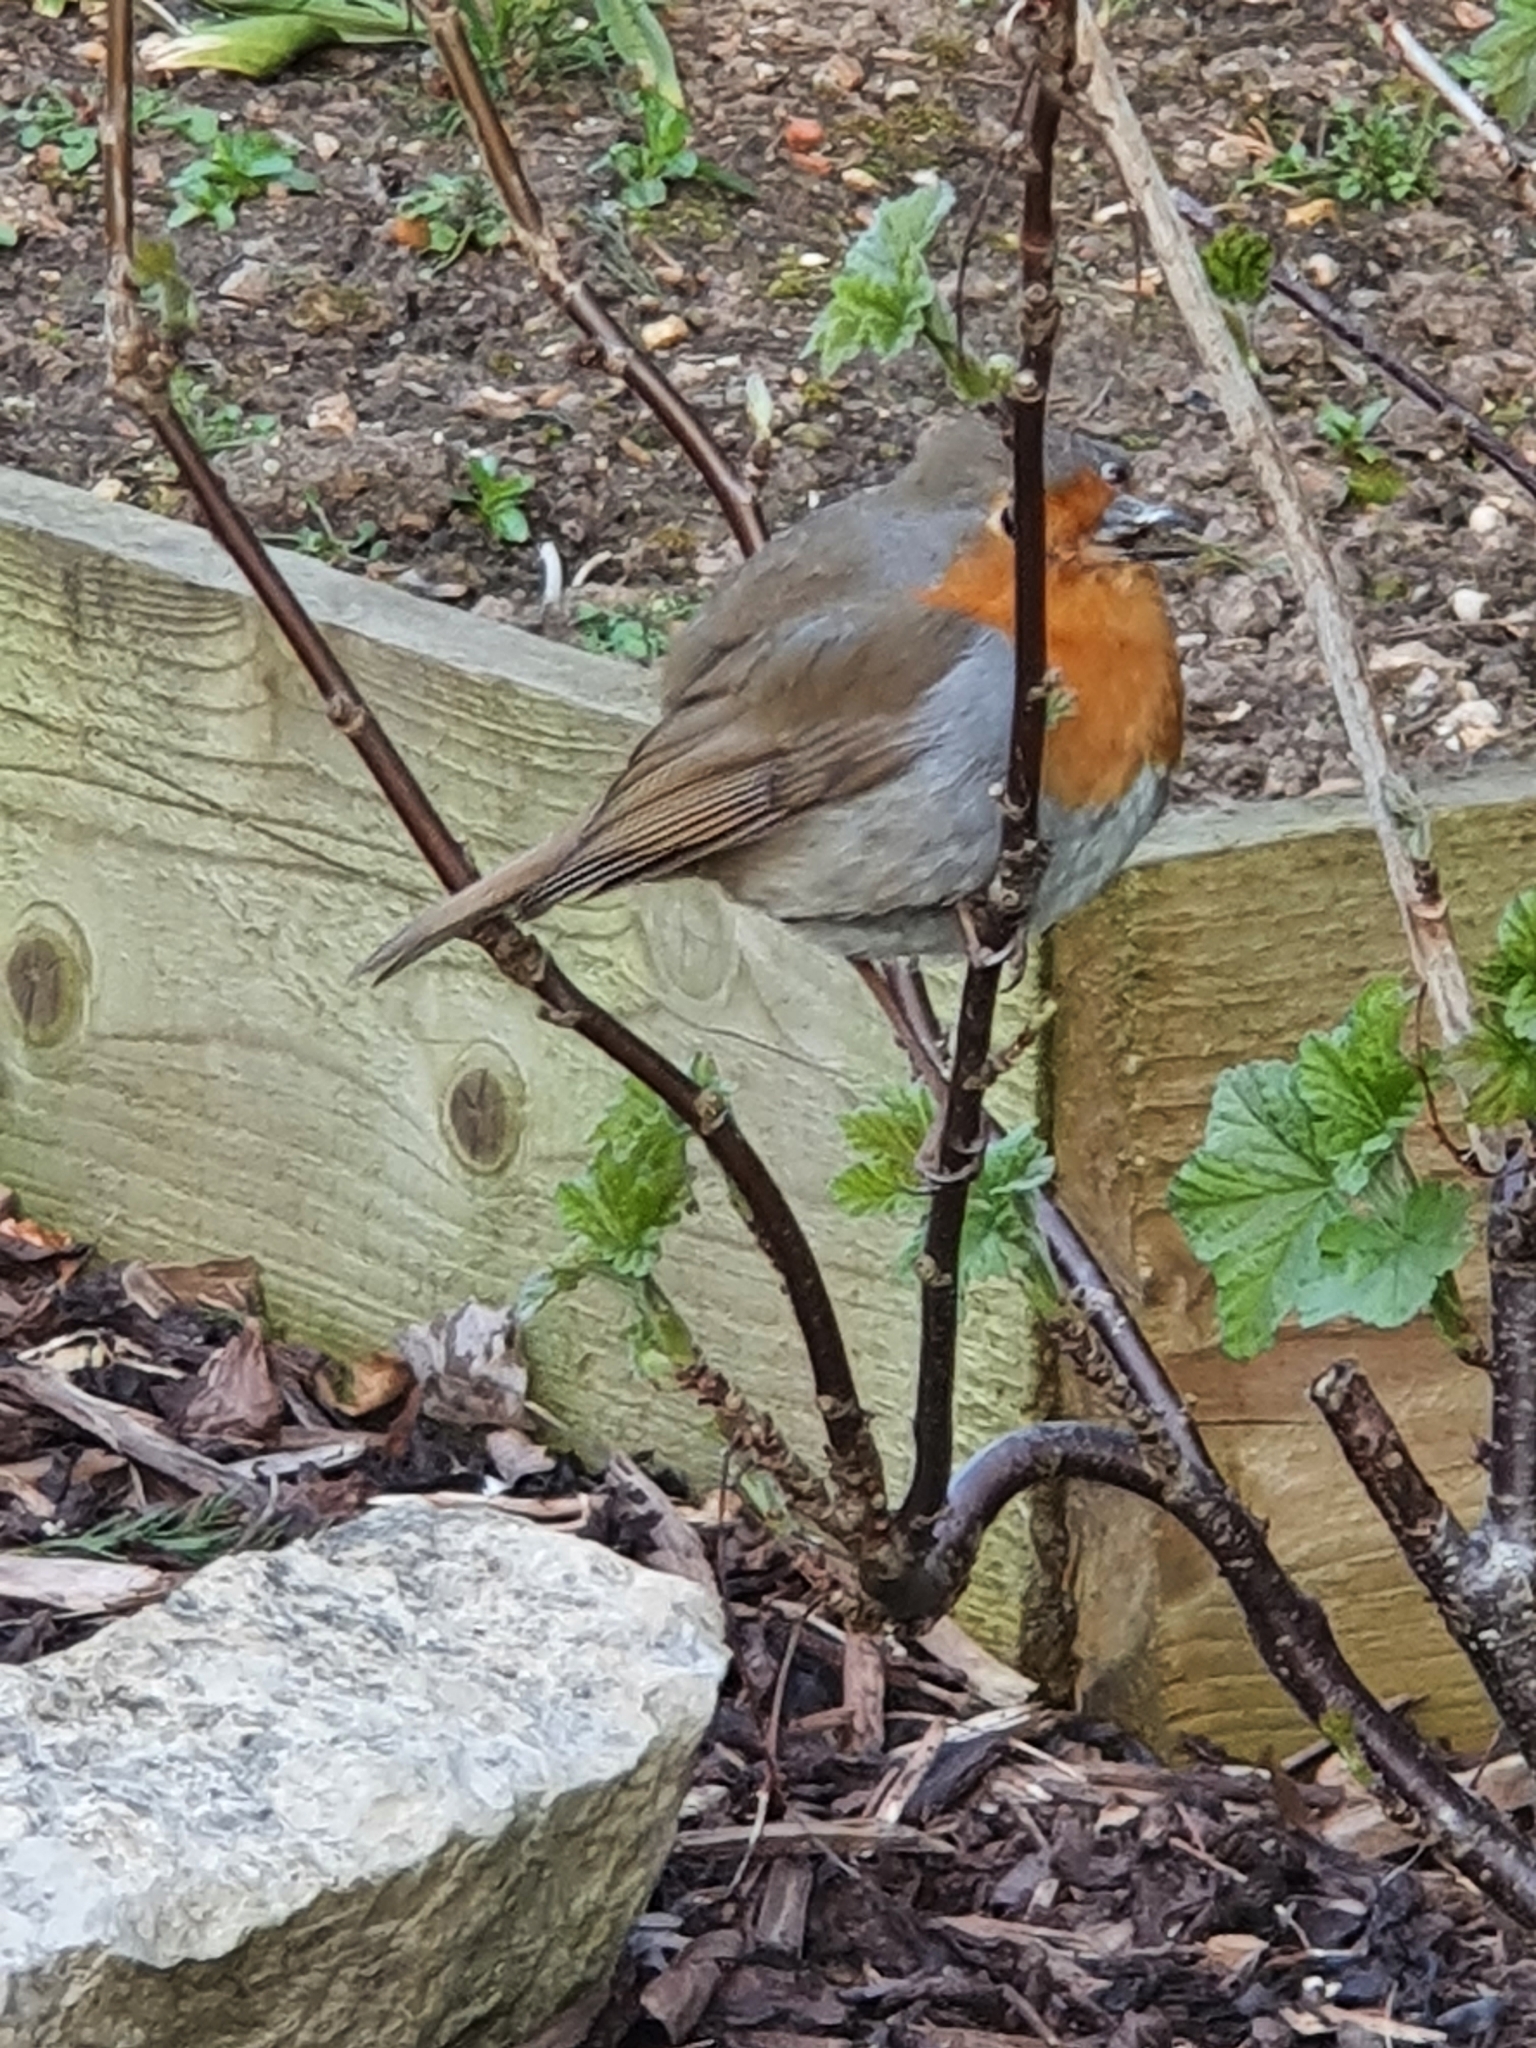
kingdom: Animalia
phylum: Chordata
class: Aves
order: Passeriformes
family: Muscicapidae
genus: Erithacus
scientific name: Erithacus rubecula
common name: European robin
